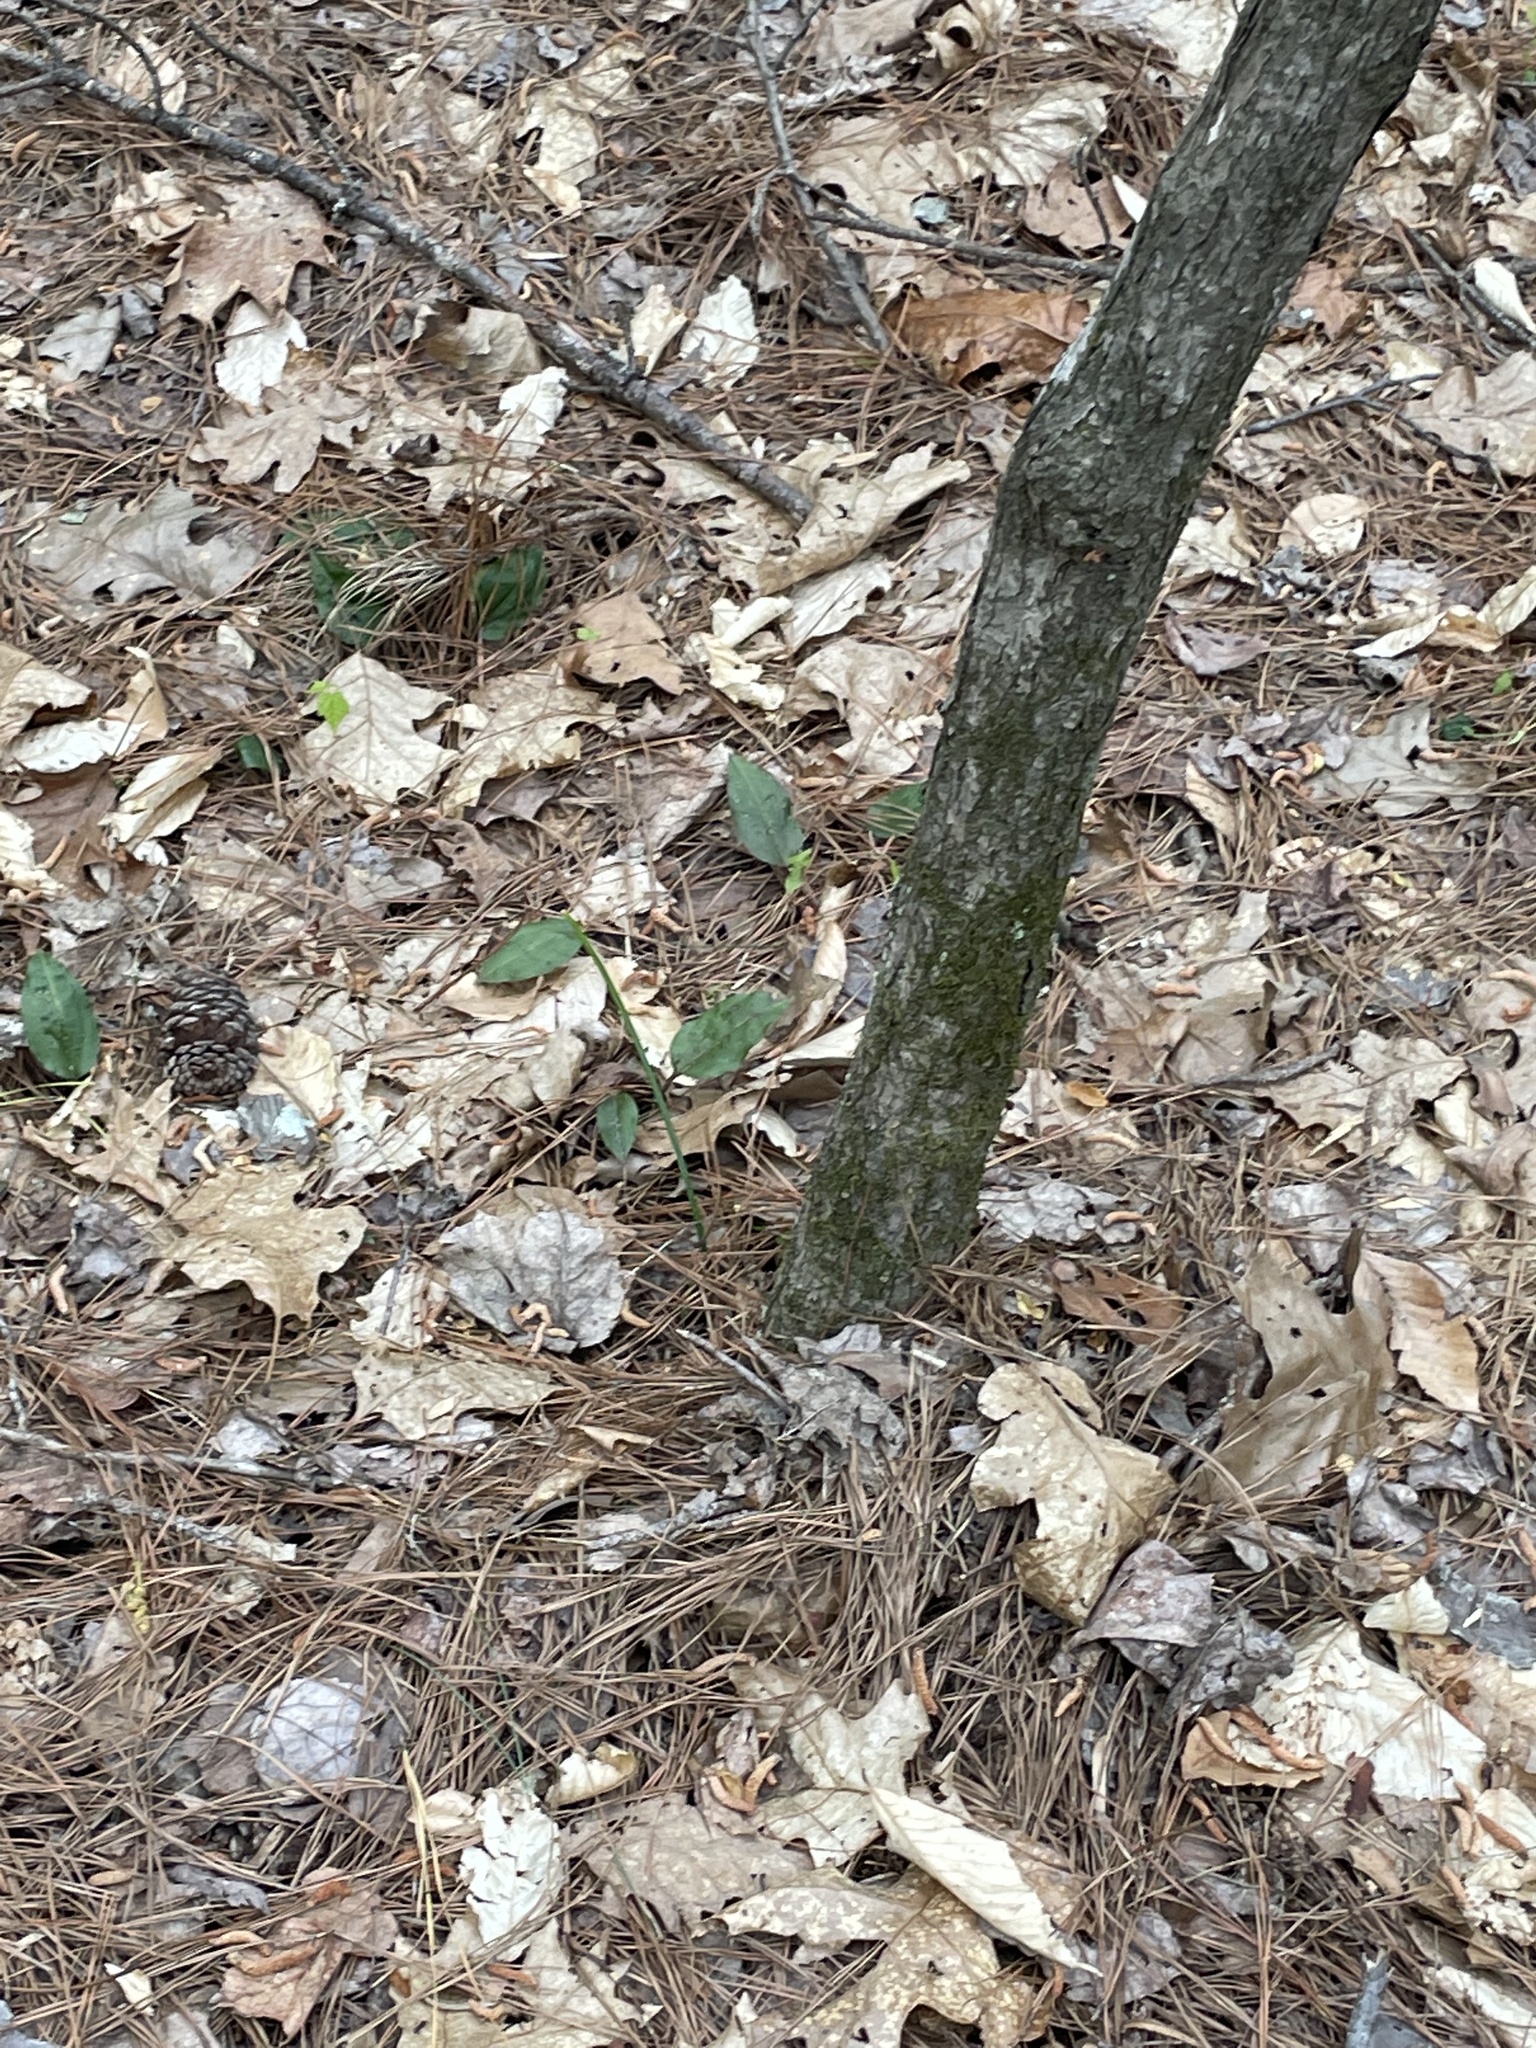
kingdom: Plantae
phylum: Tracheophyta
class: Liliopsida
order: Asparagales
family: Orchidaceae
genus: Tipularia
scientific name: Tipularia discolor
